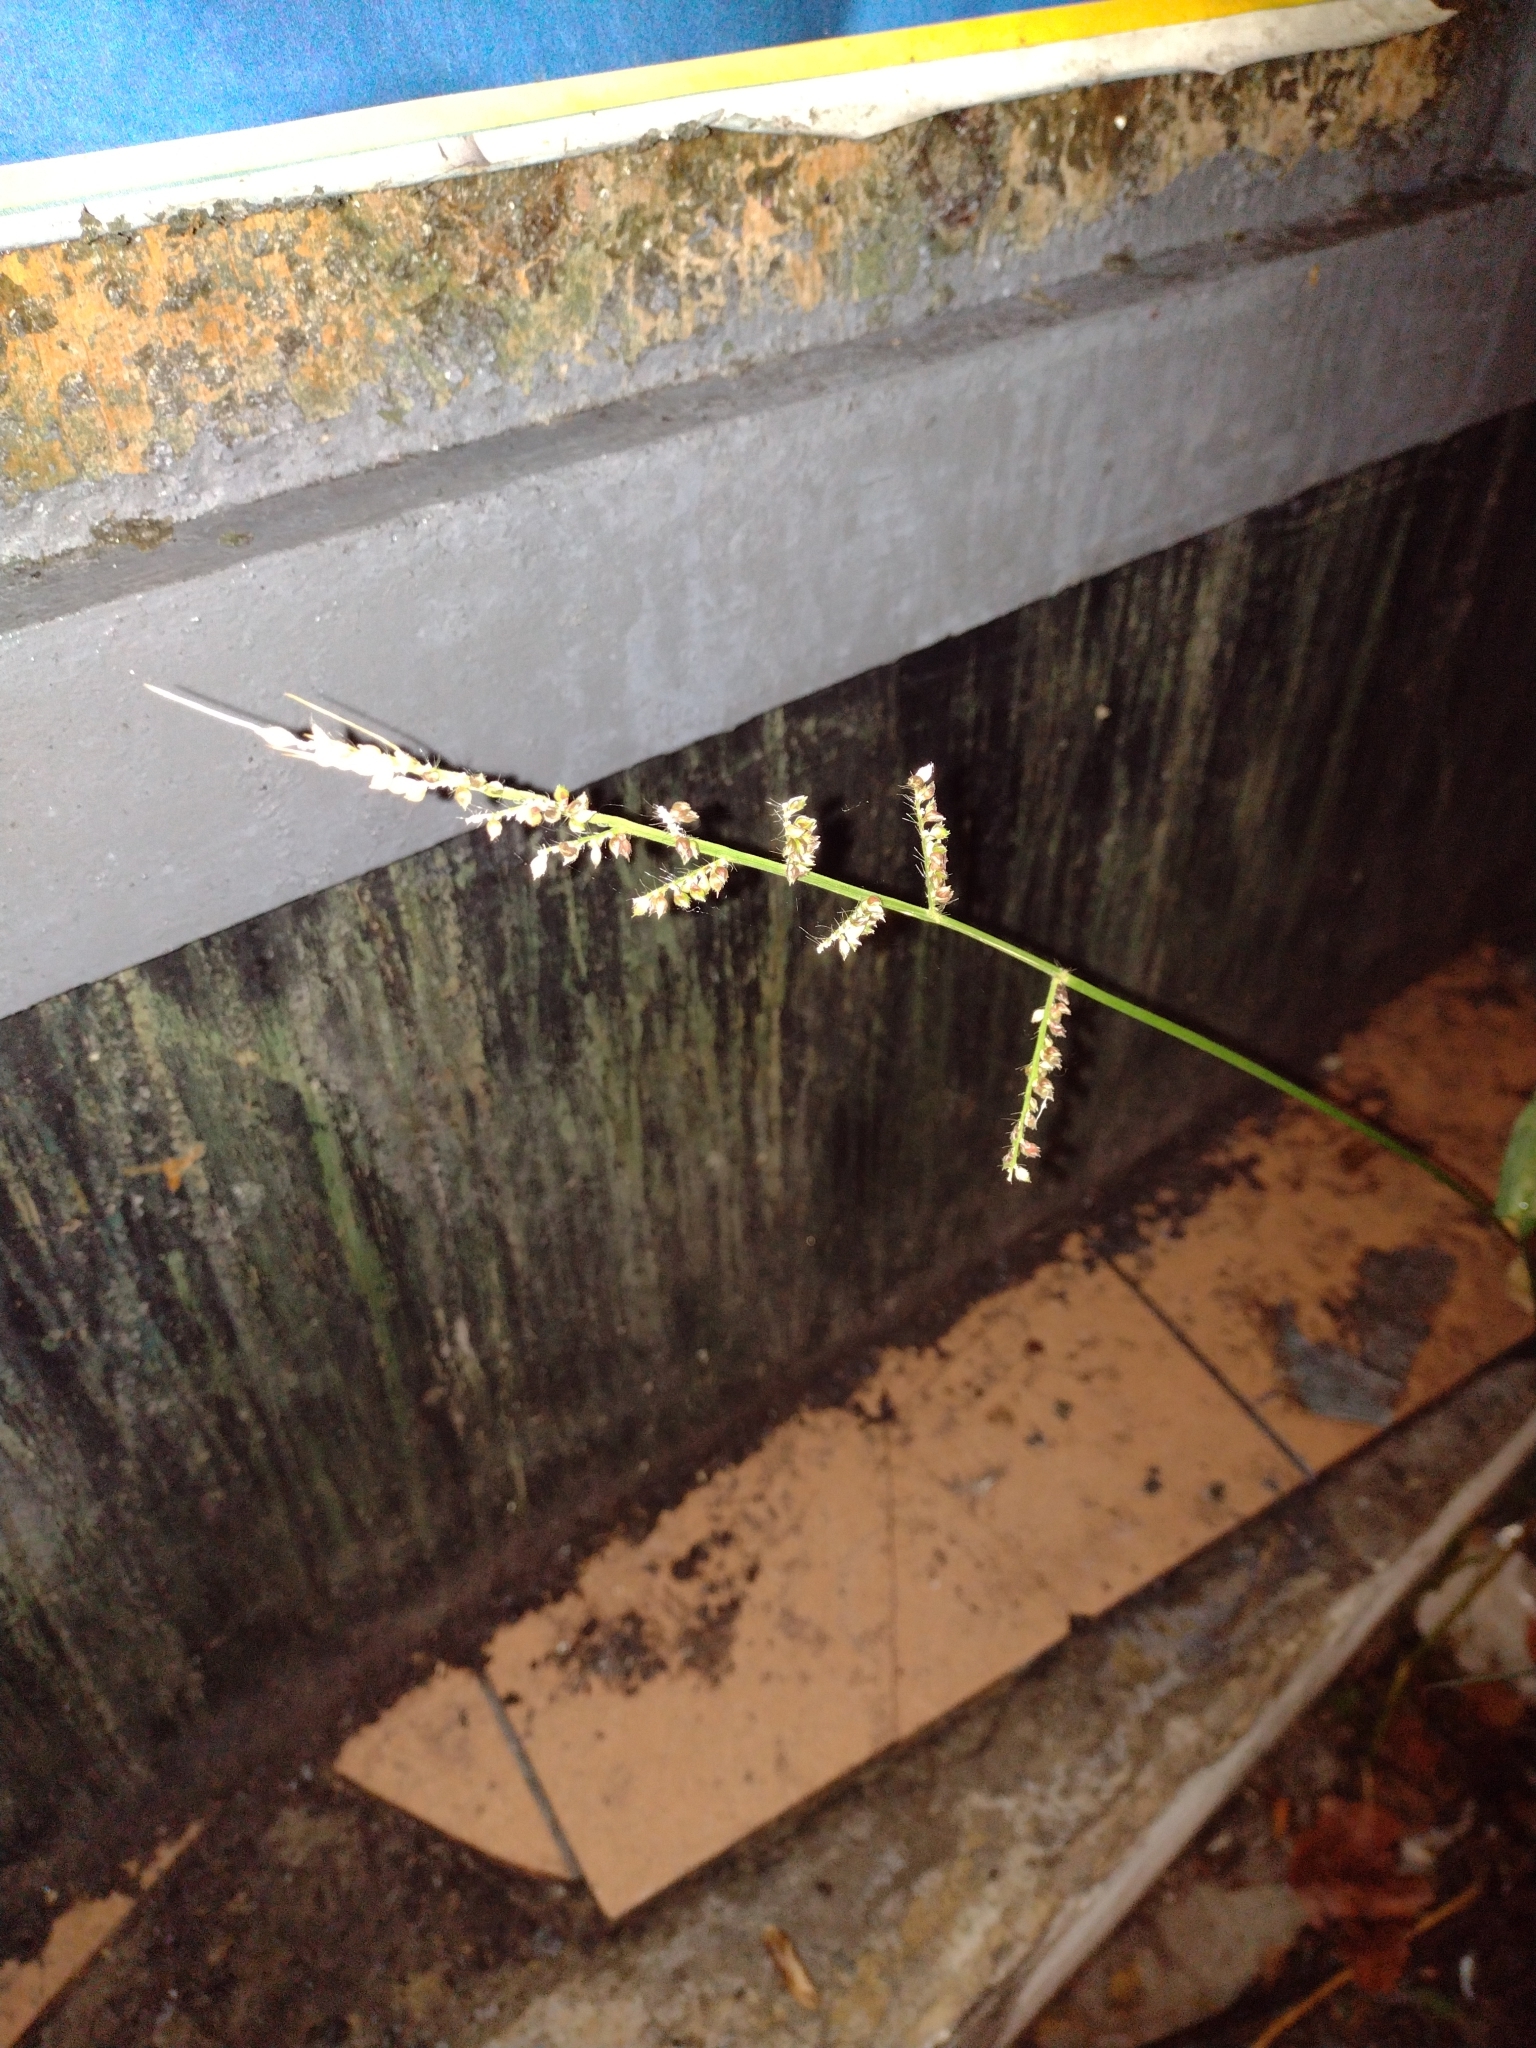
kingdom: Plantae
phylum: Tracheophyta
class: Liliopsida
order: Poales
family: Poaceae
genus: Echinochloa
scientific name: Echinochloa crus-galli
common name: Cockspur
